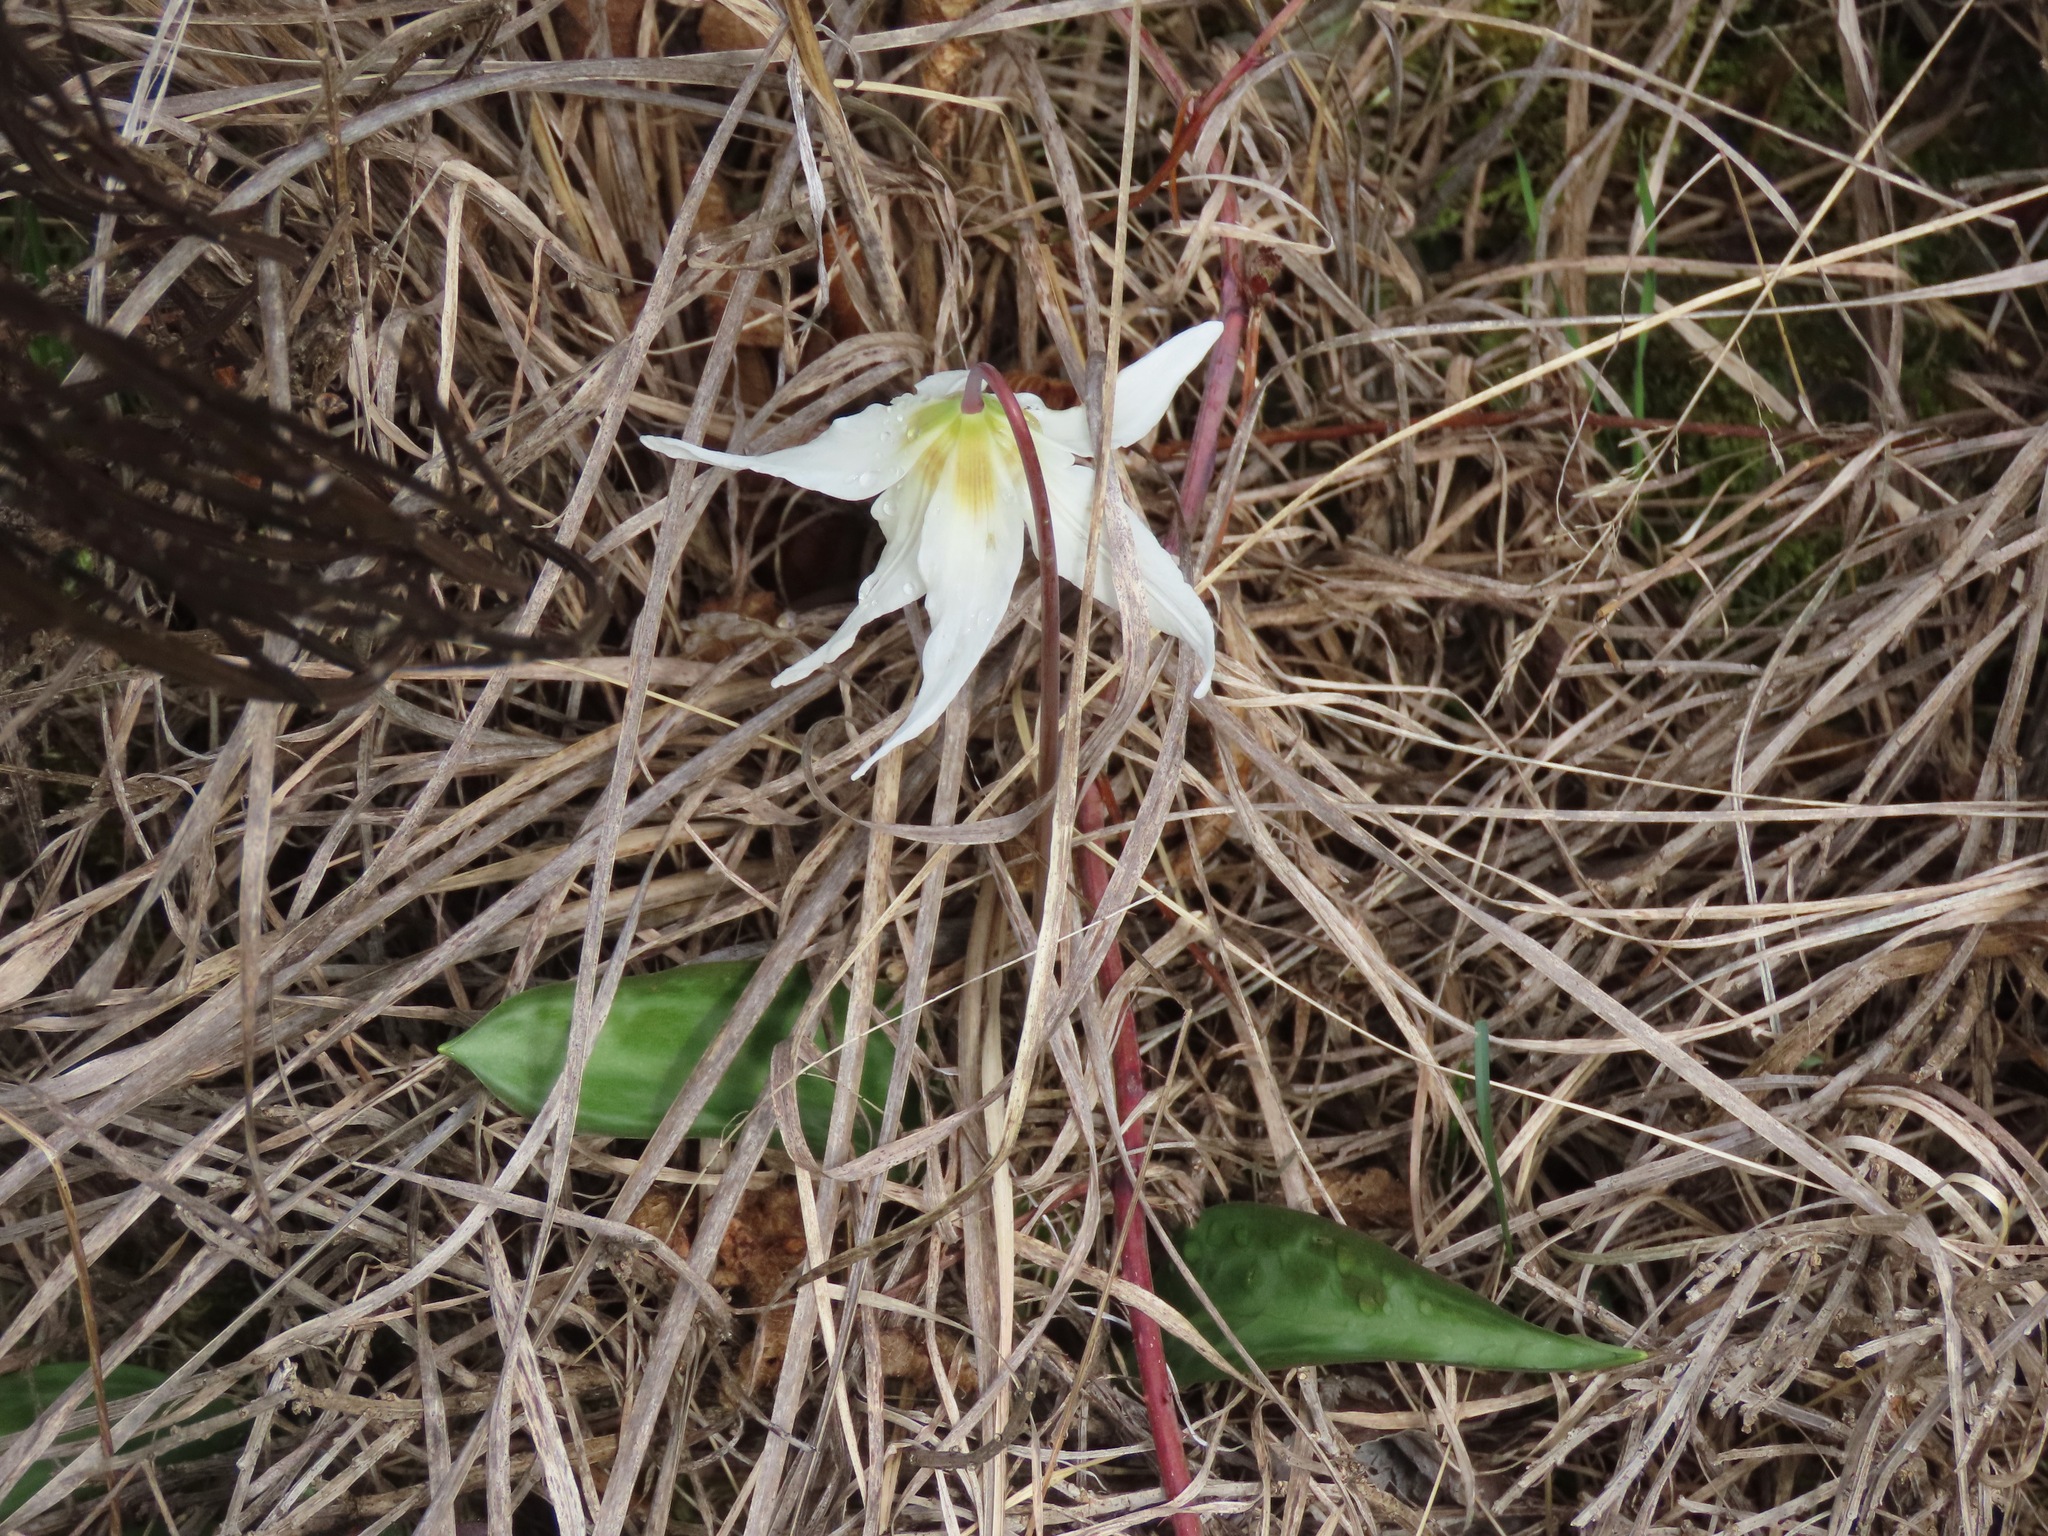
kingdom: Plantae
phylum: Tracheophyta
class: Liliopsida
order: Liliales
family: Liliaceae
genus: Erythronium
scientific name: Erythronium oregonum
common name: Giant adder's-tongue
